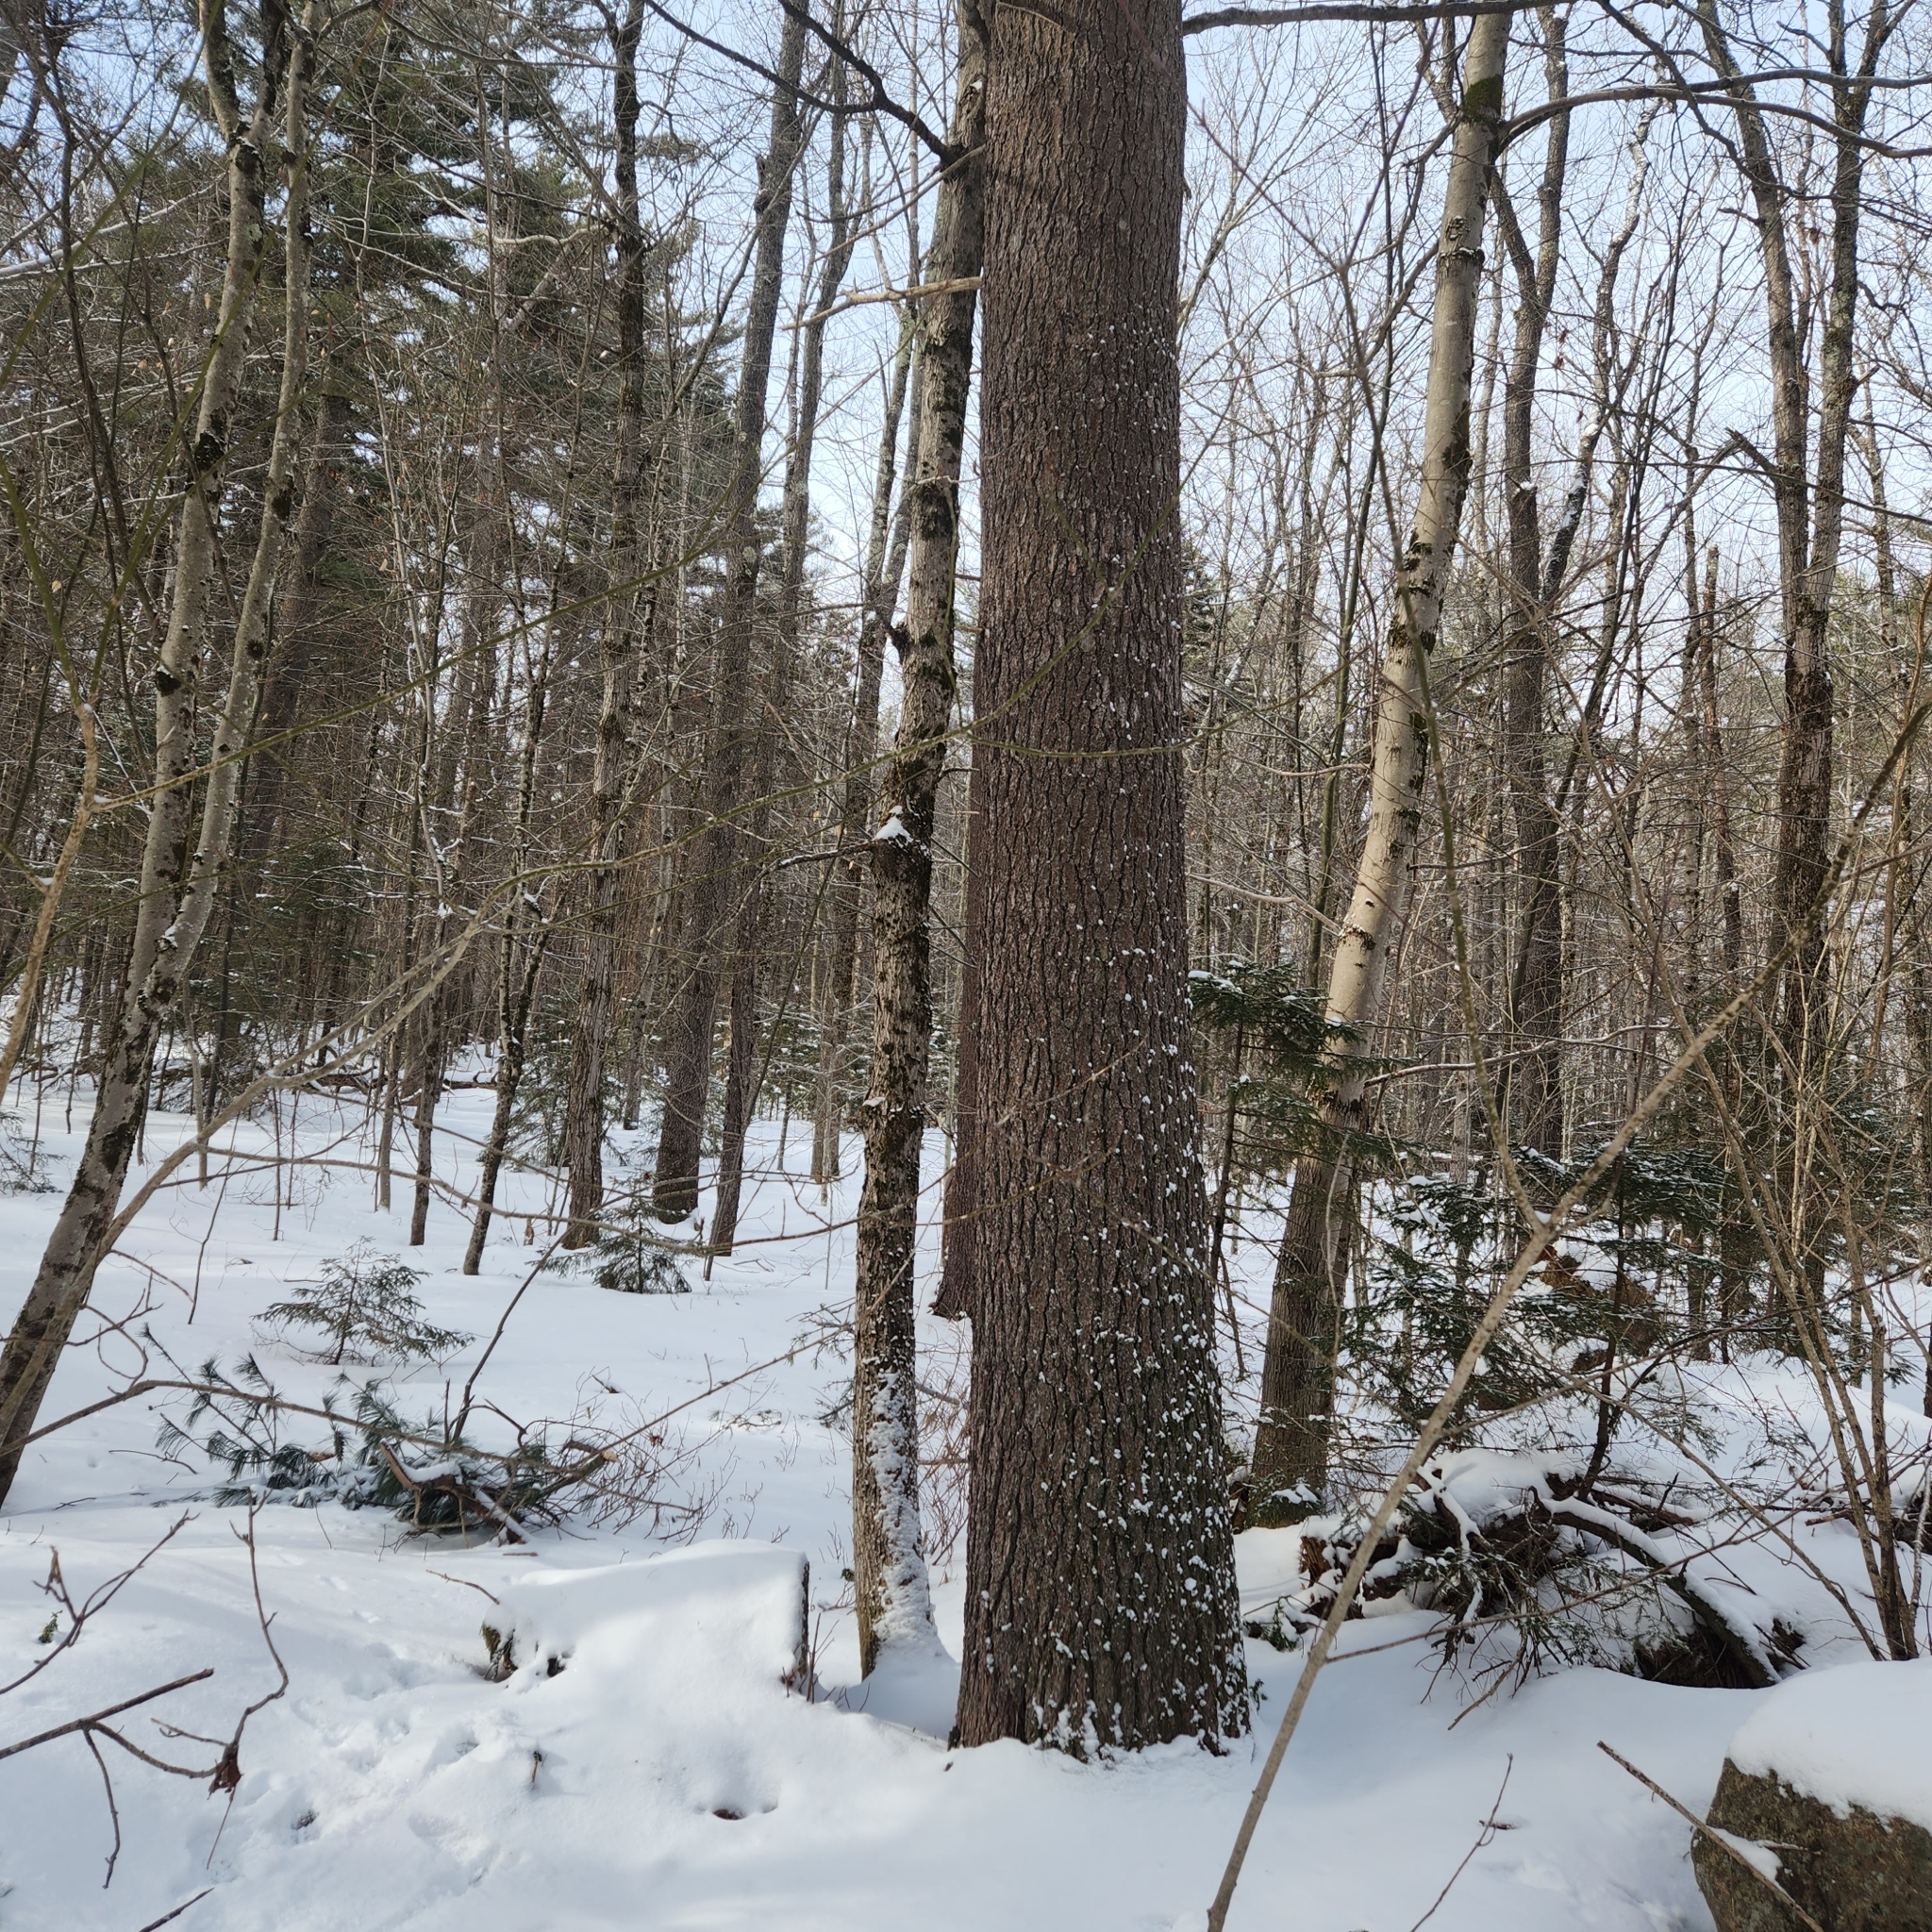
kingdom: Plantae
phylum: Tracheophyta
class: Pinopsida
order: Pinales
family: Pinaceae
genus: Pinus
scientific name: Pinus strobus
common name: Weymouth pine
